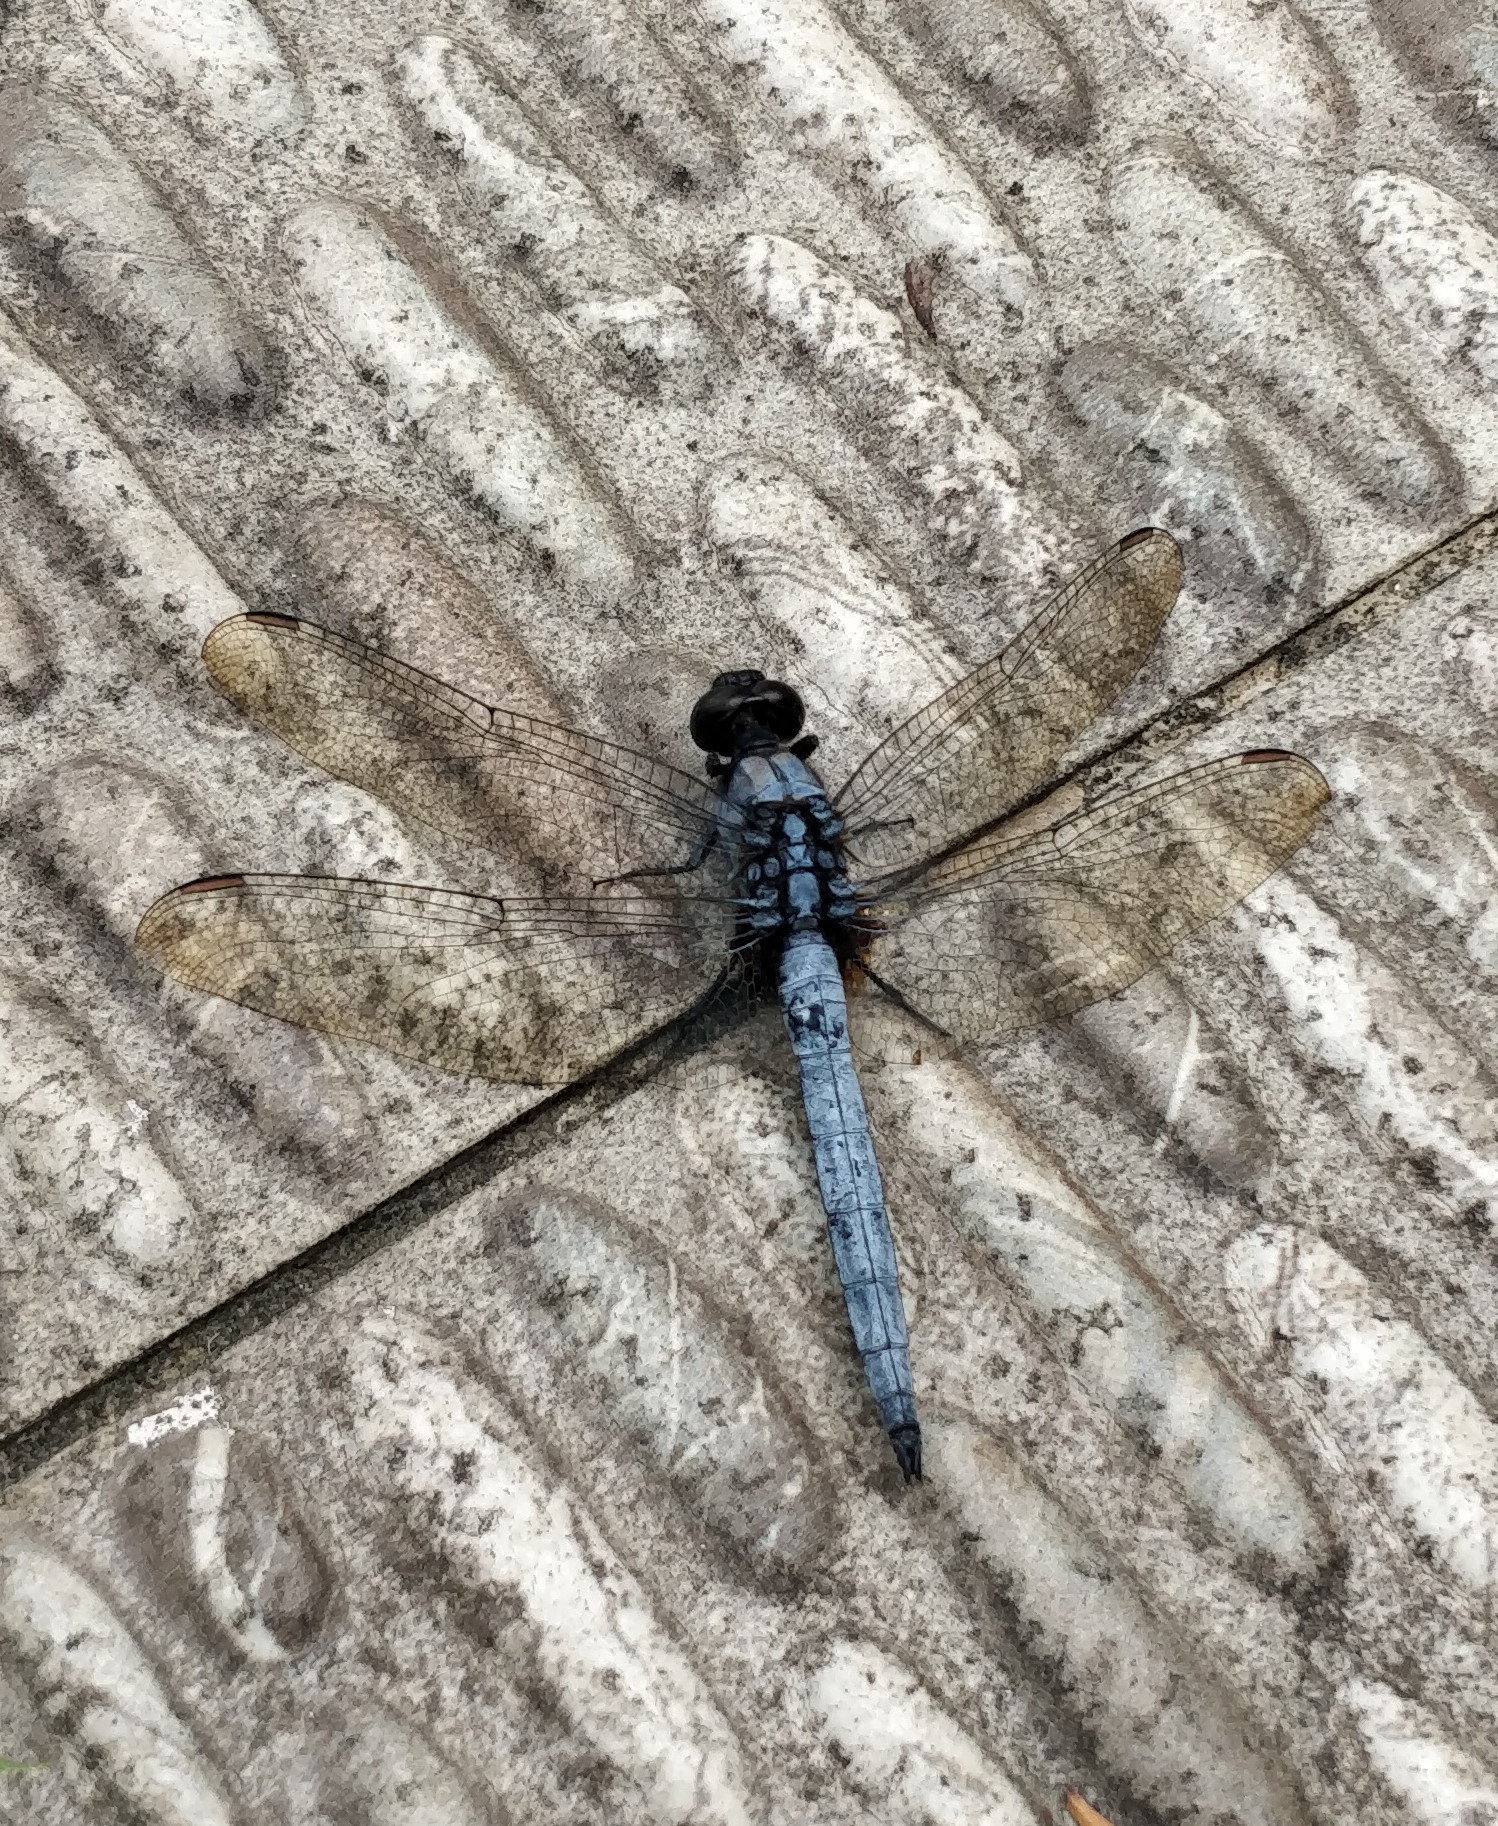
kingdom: Animalia
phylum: Arthropoda
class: Insecta
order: Odonata
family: Libellulidae
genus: Orthetrum
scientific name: Orthetrum glaucum
